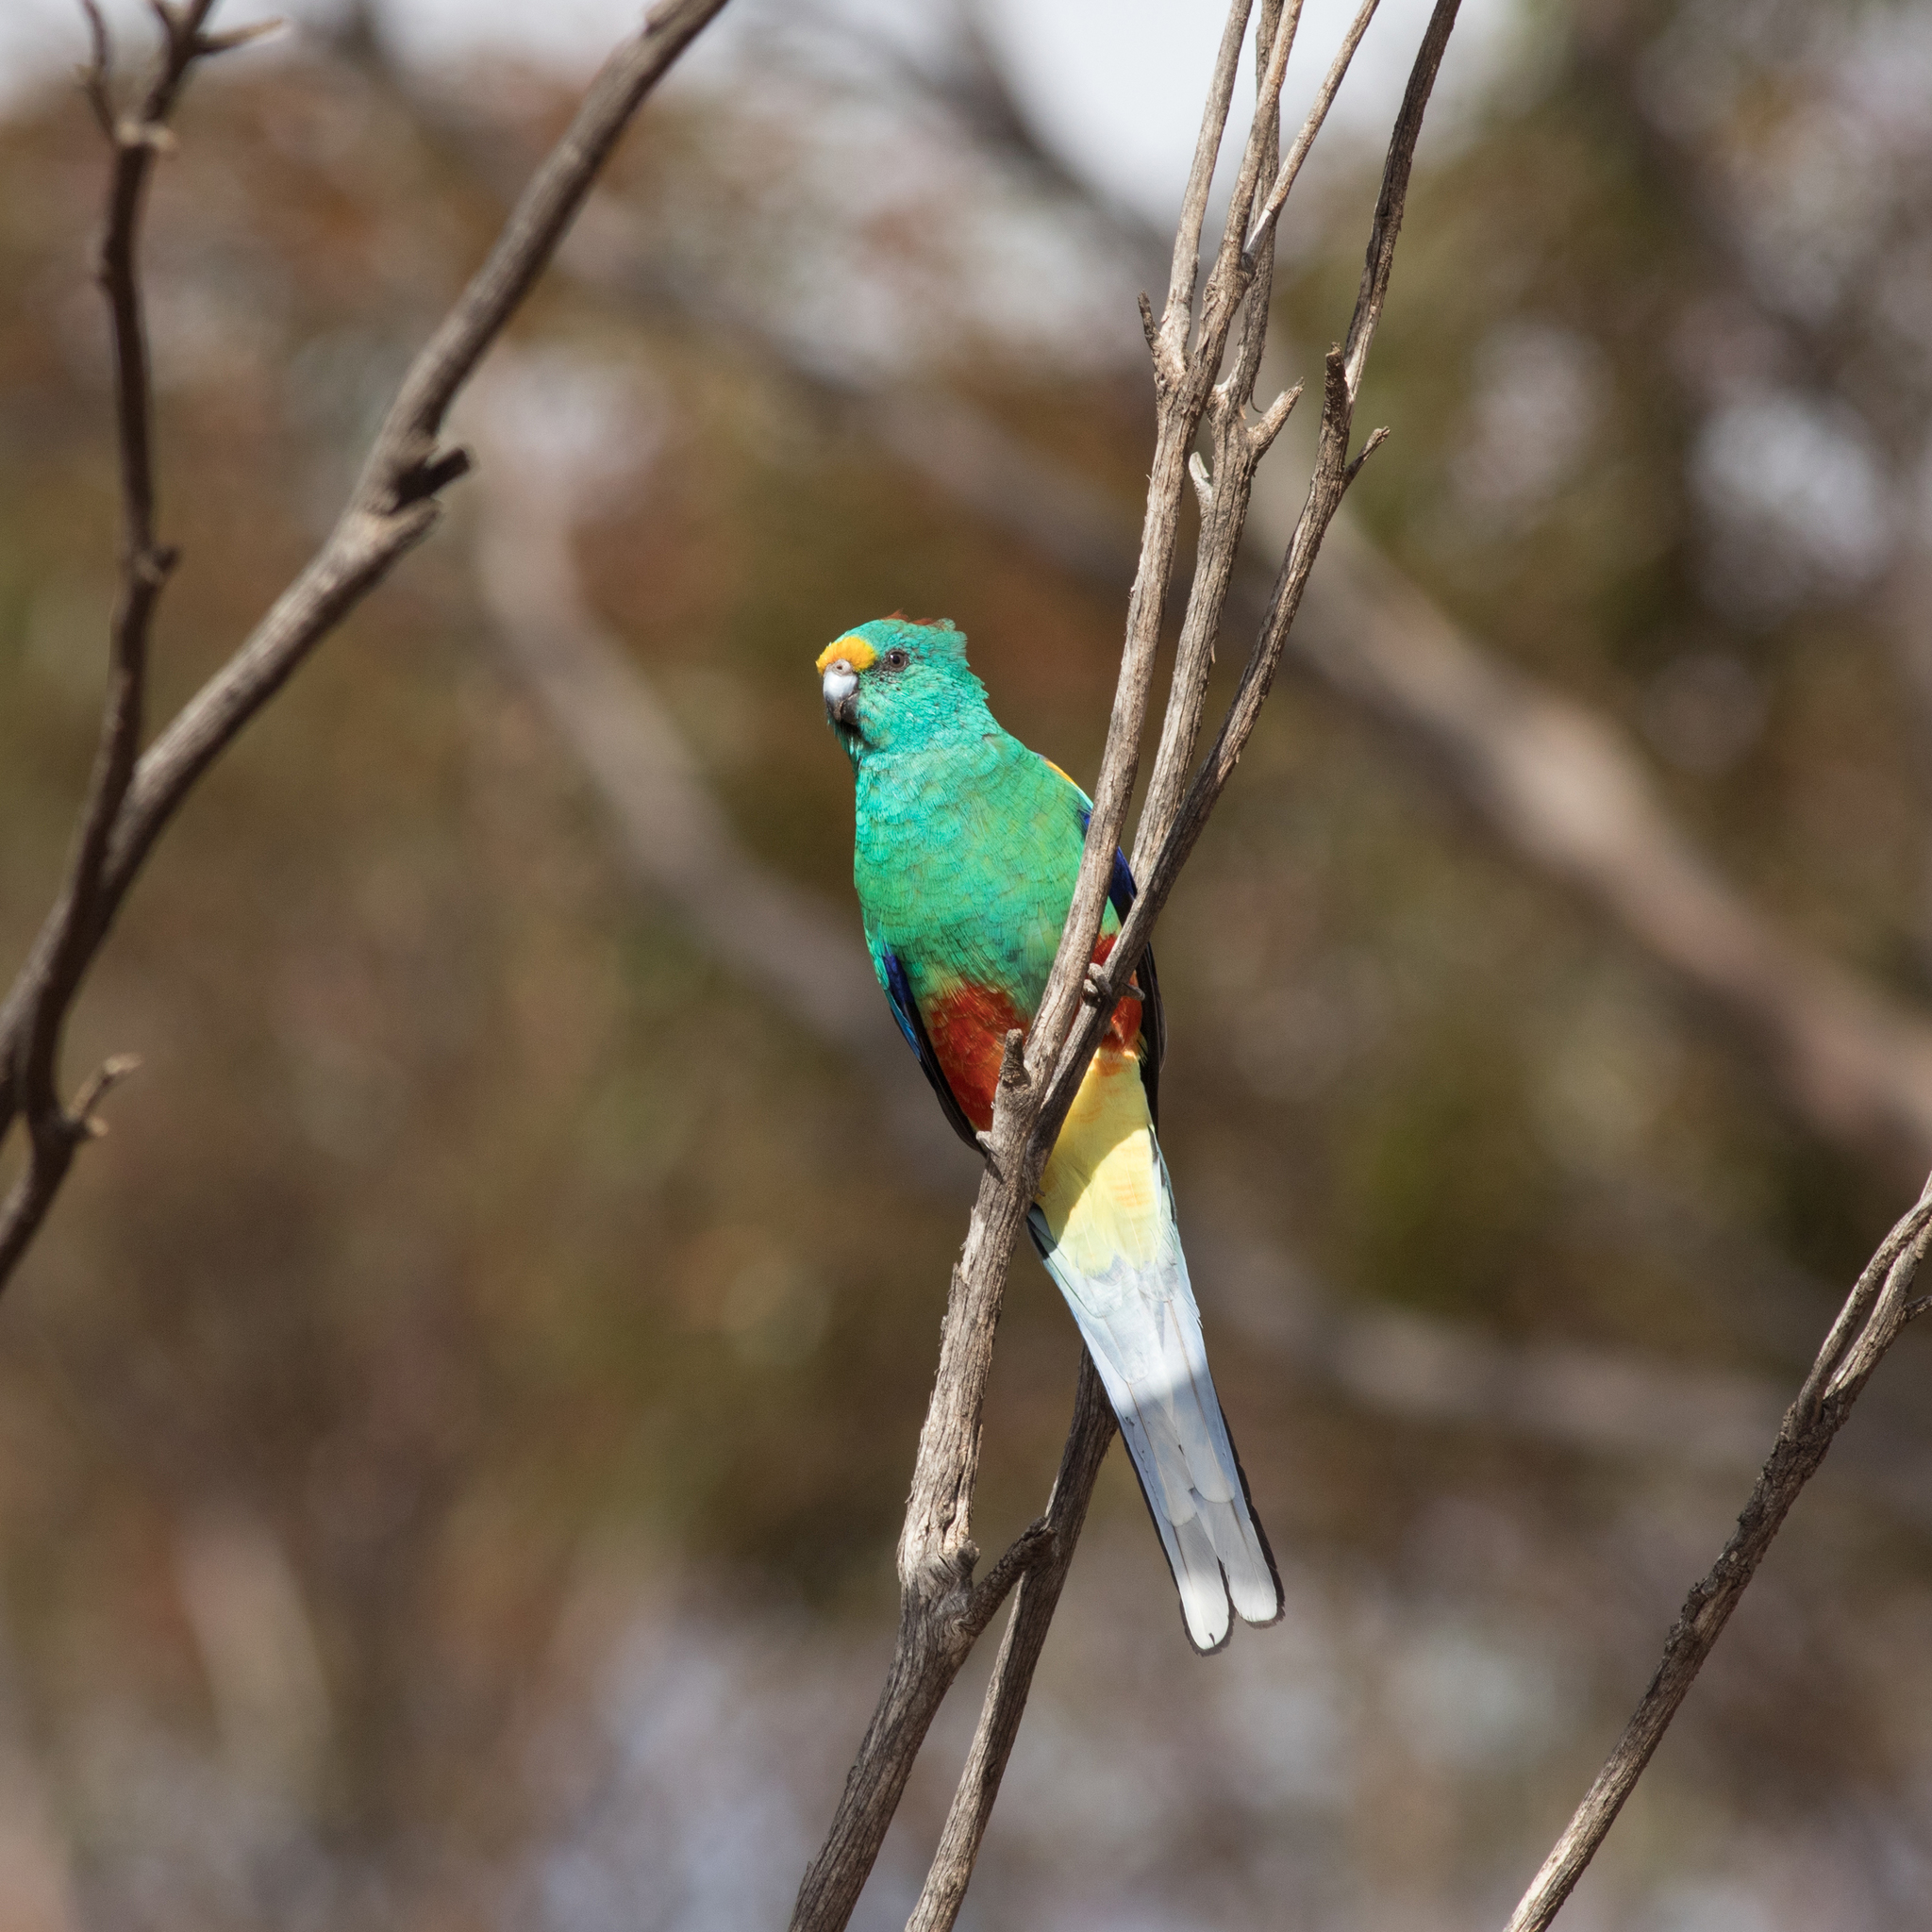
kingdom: Animalia
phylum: Chordata
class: Aves
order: Psittaciformes
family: Psittaculidae
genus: Psephotellus
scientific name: Psephotellus varius
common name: Mulga parrot
